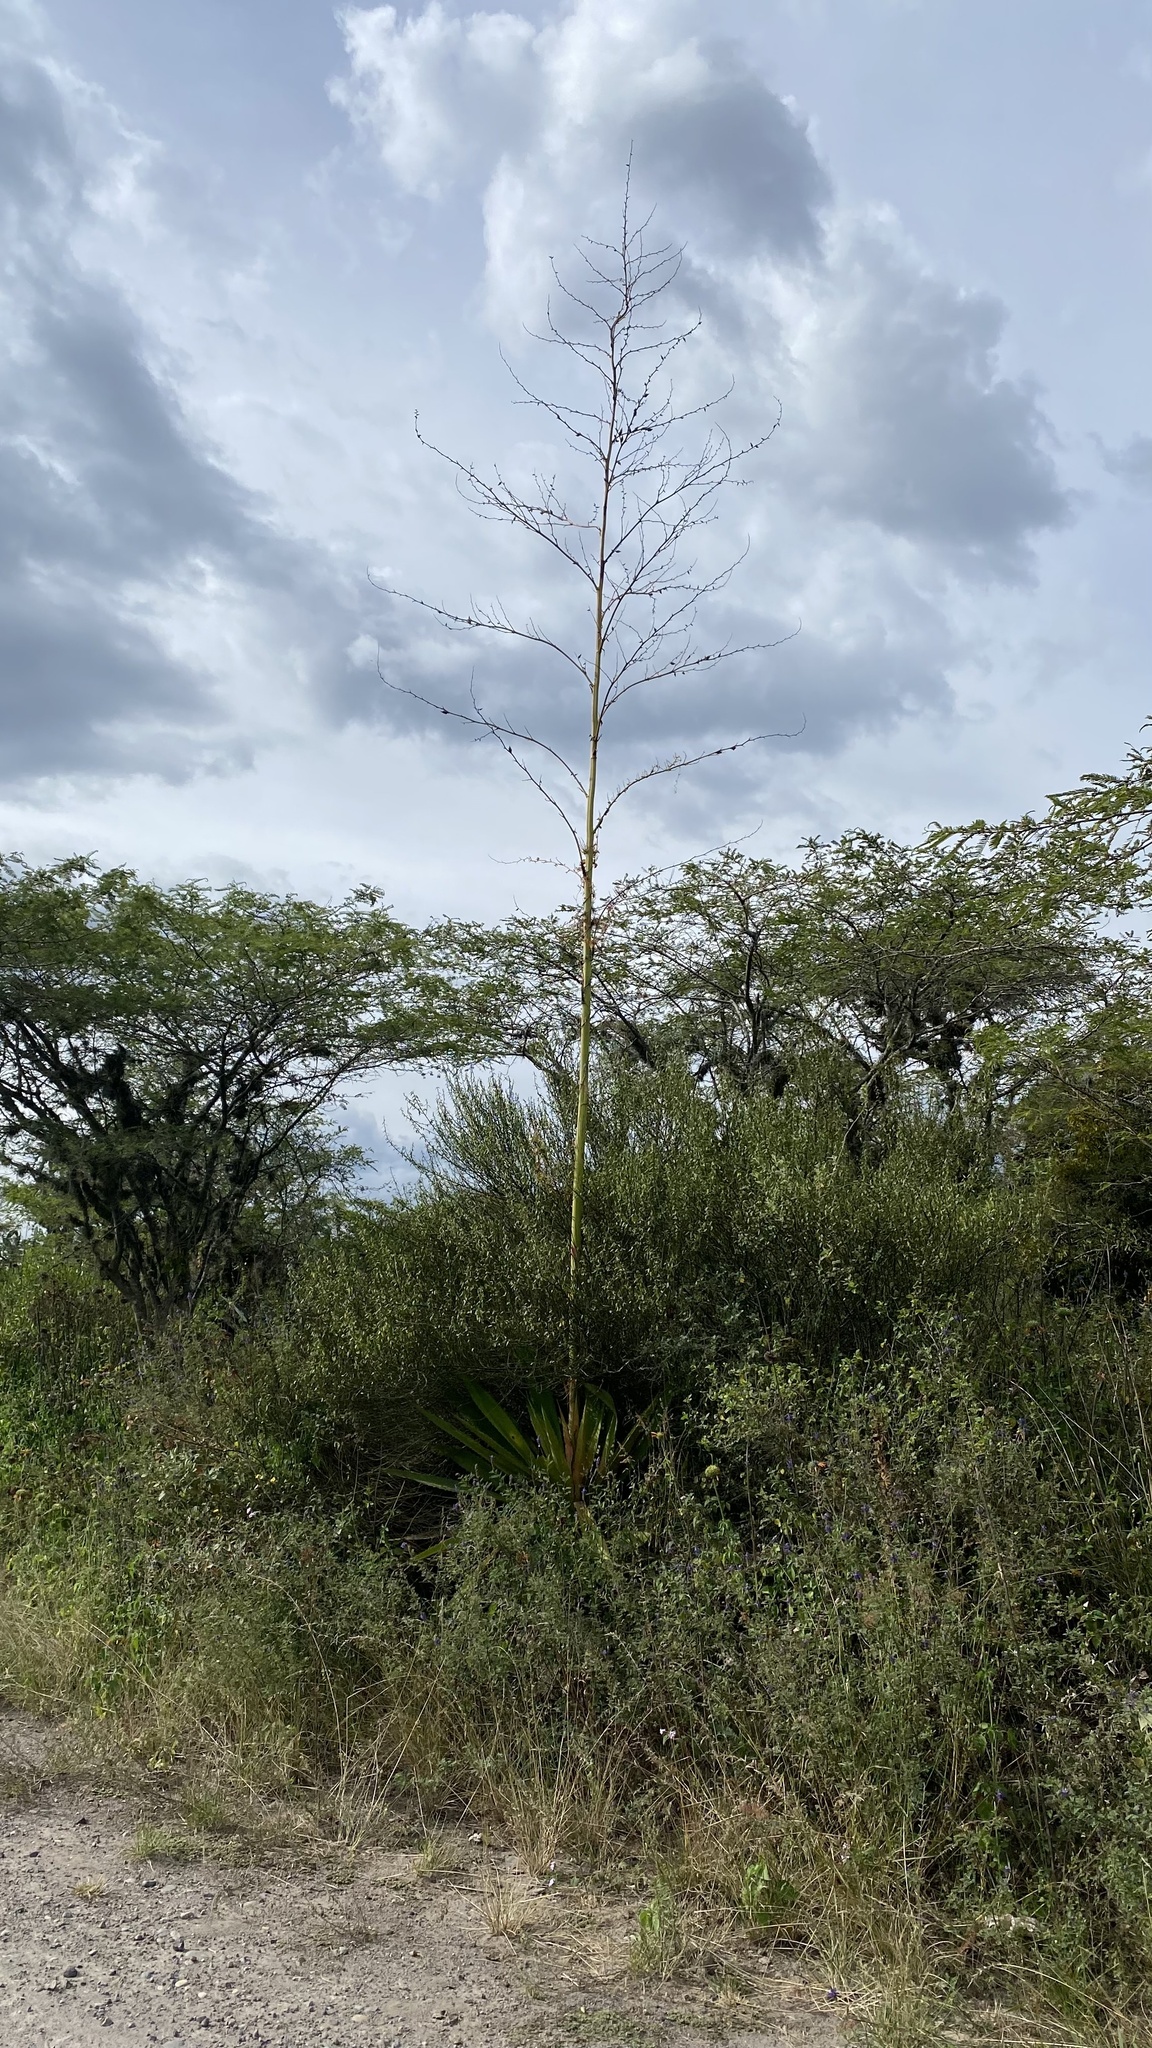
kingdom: Plantae
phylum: Tracheophyta
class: Liliopsida
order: Asparagales
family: Asparagaceae
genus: Furcraea
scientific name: Furcraea andina
